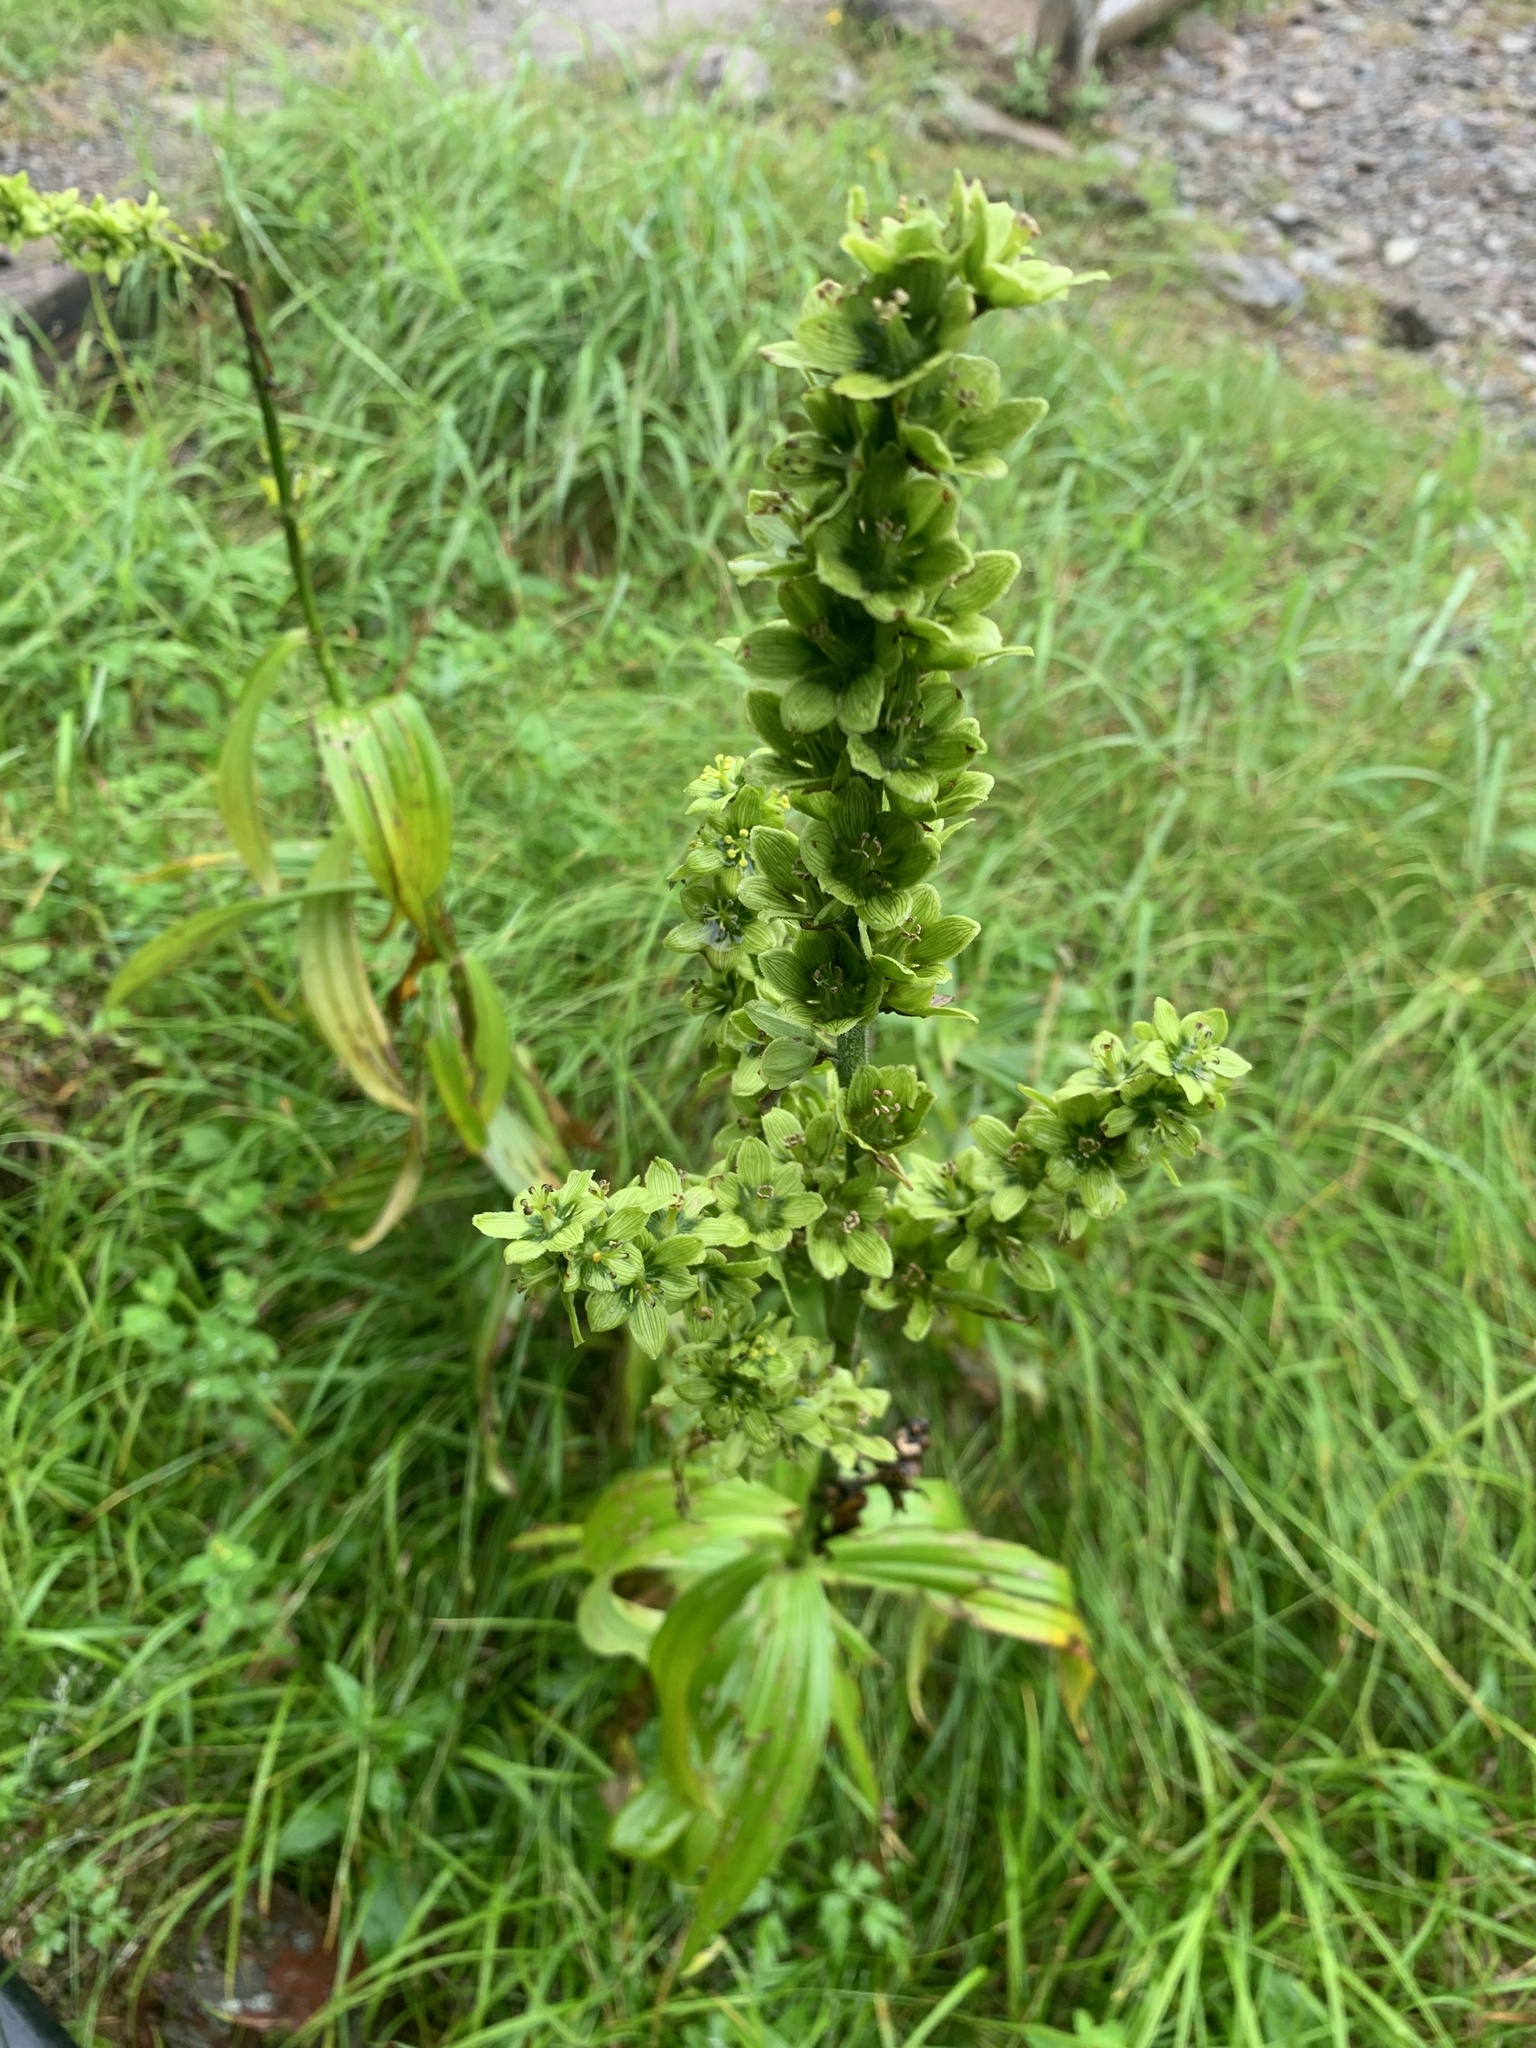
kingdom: Plantae
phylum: Tracheophyta
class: Liliopsida
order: Liliales
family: Melanthiaceae
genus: Veratrum
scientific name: Veratrum oxysepalum
